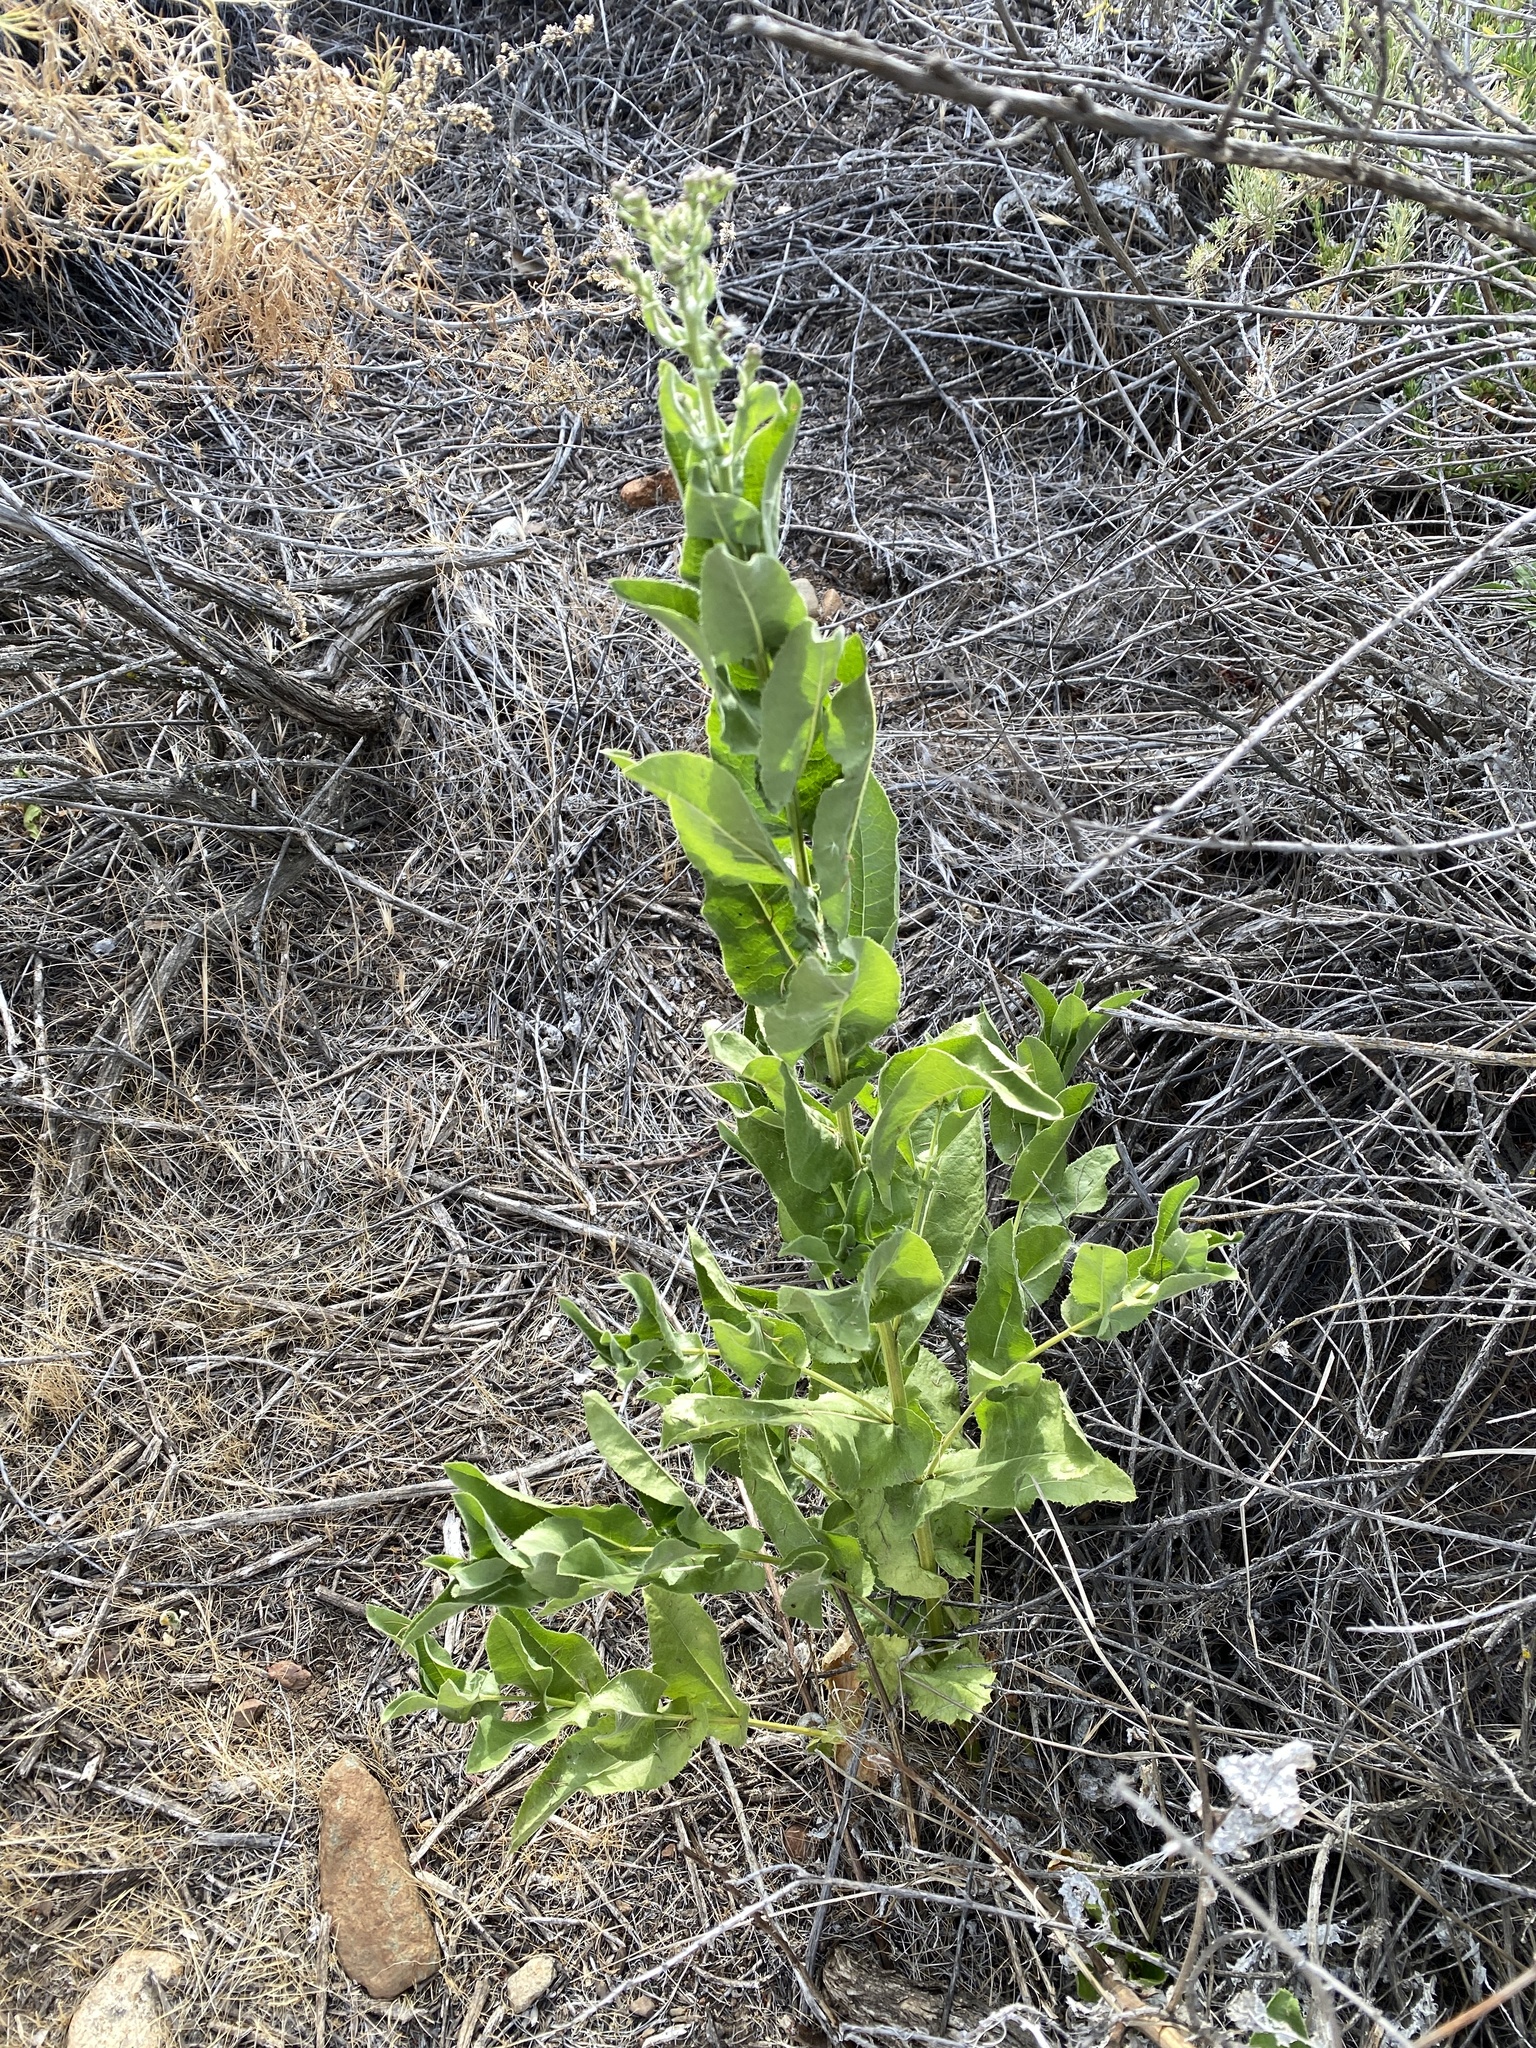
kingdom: Plantae
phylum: Tracheophyta
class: Magnoliopsida
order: Asterales
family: Asteraceae
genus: Acourtia
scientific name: Acourtia microcephala
